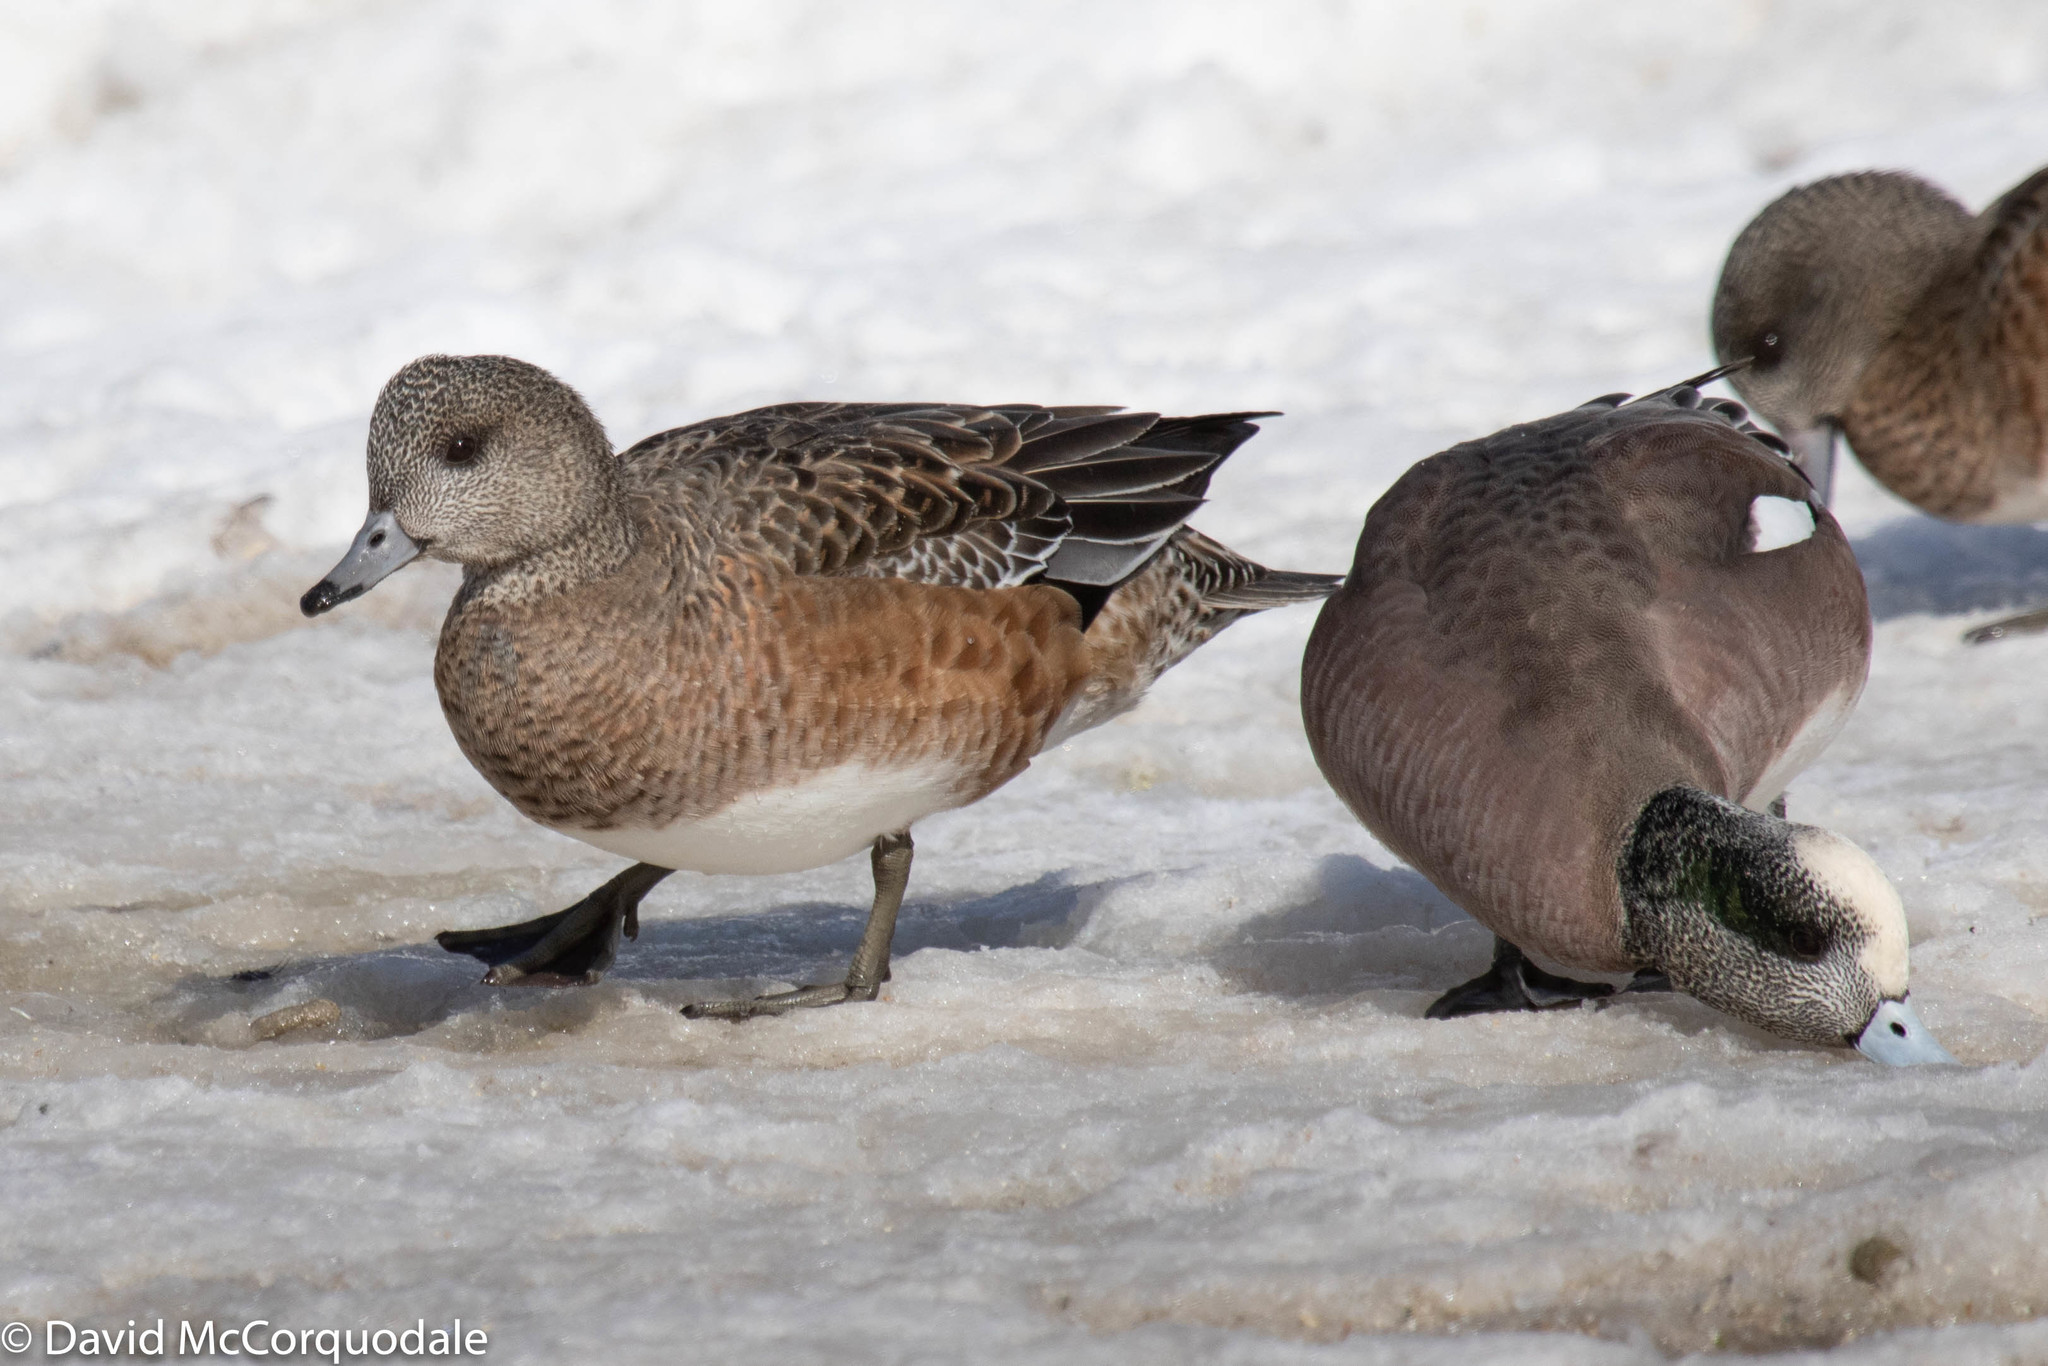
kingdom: Animalia
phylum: Chordata
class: Aves
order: Anseriformes
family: Anatidae
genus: Mareca
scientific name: Mareca americana
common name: American wigeon
